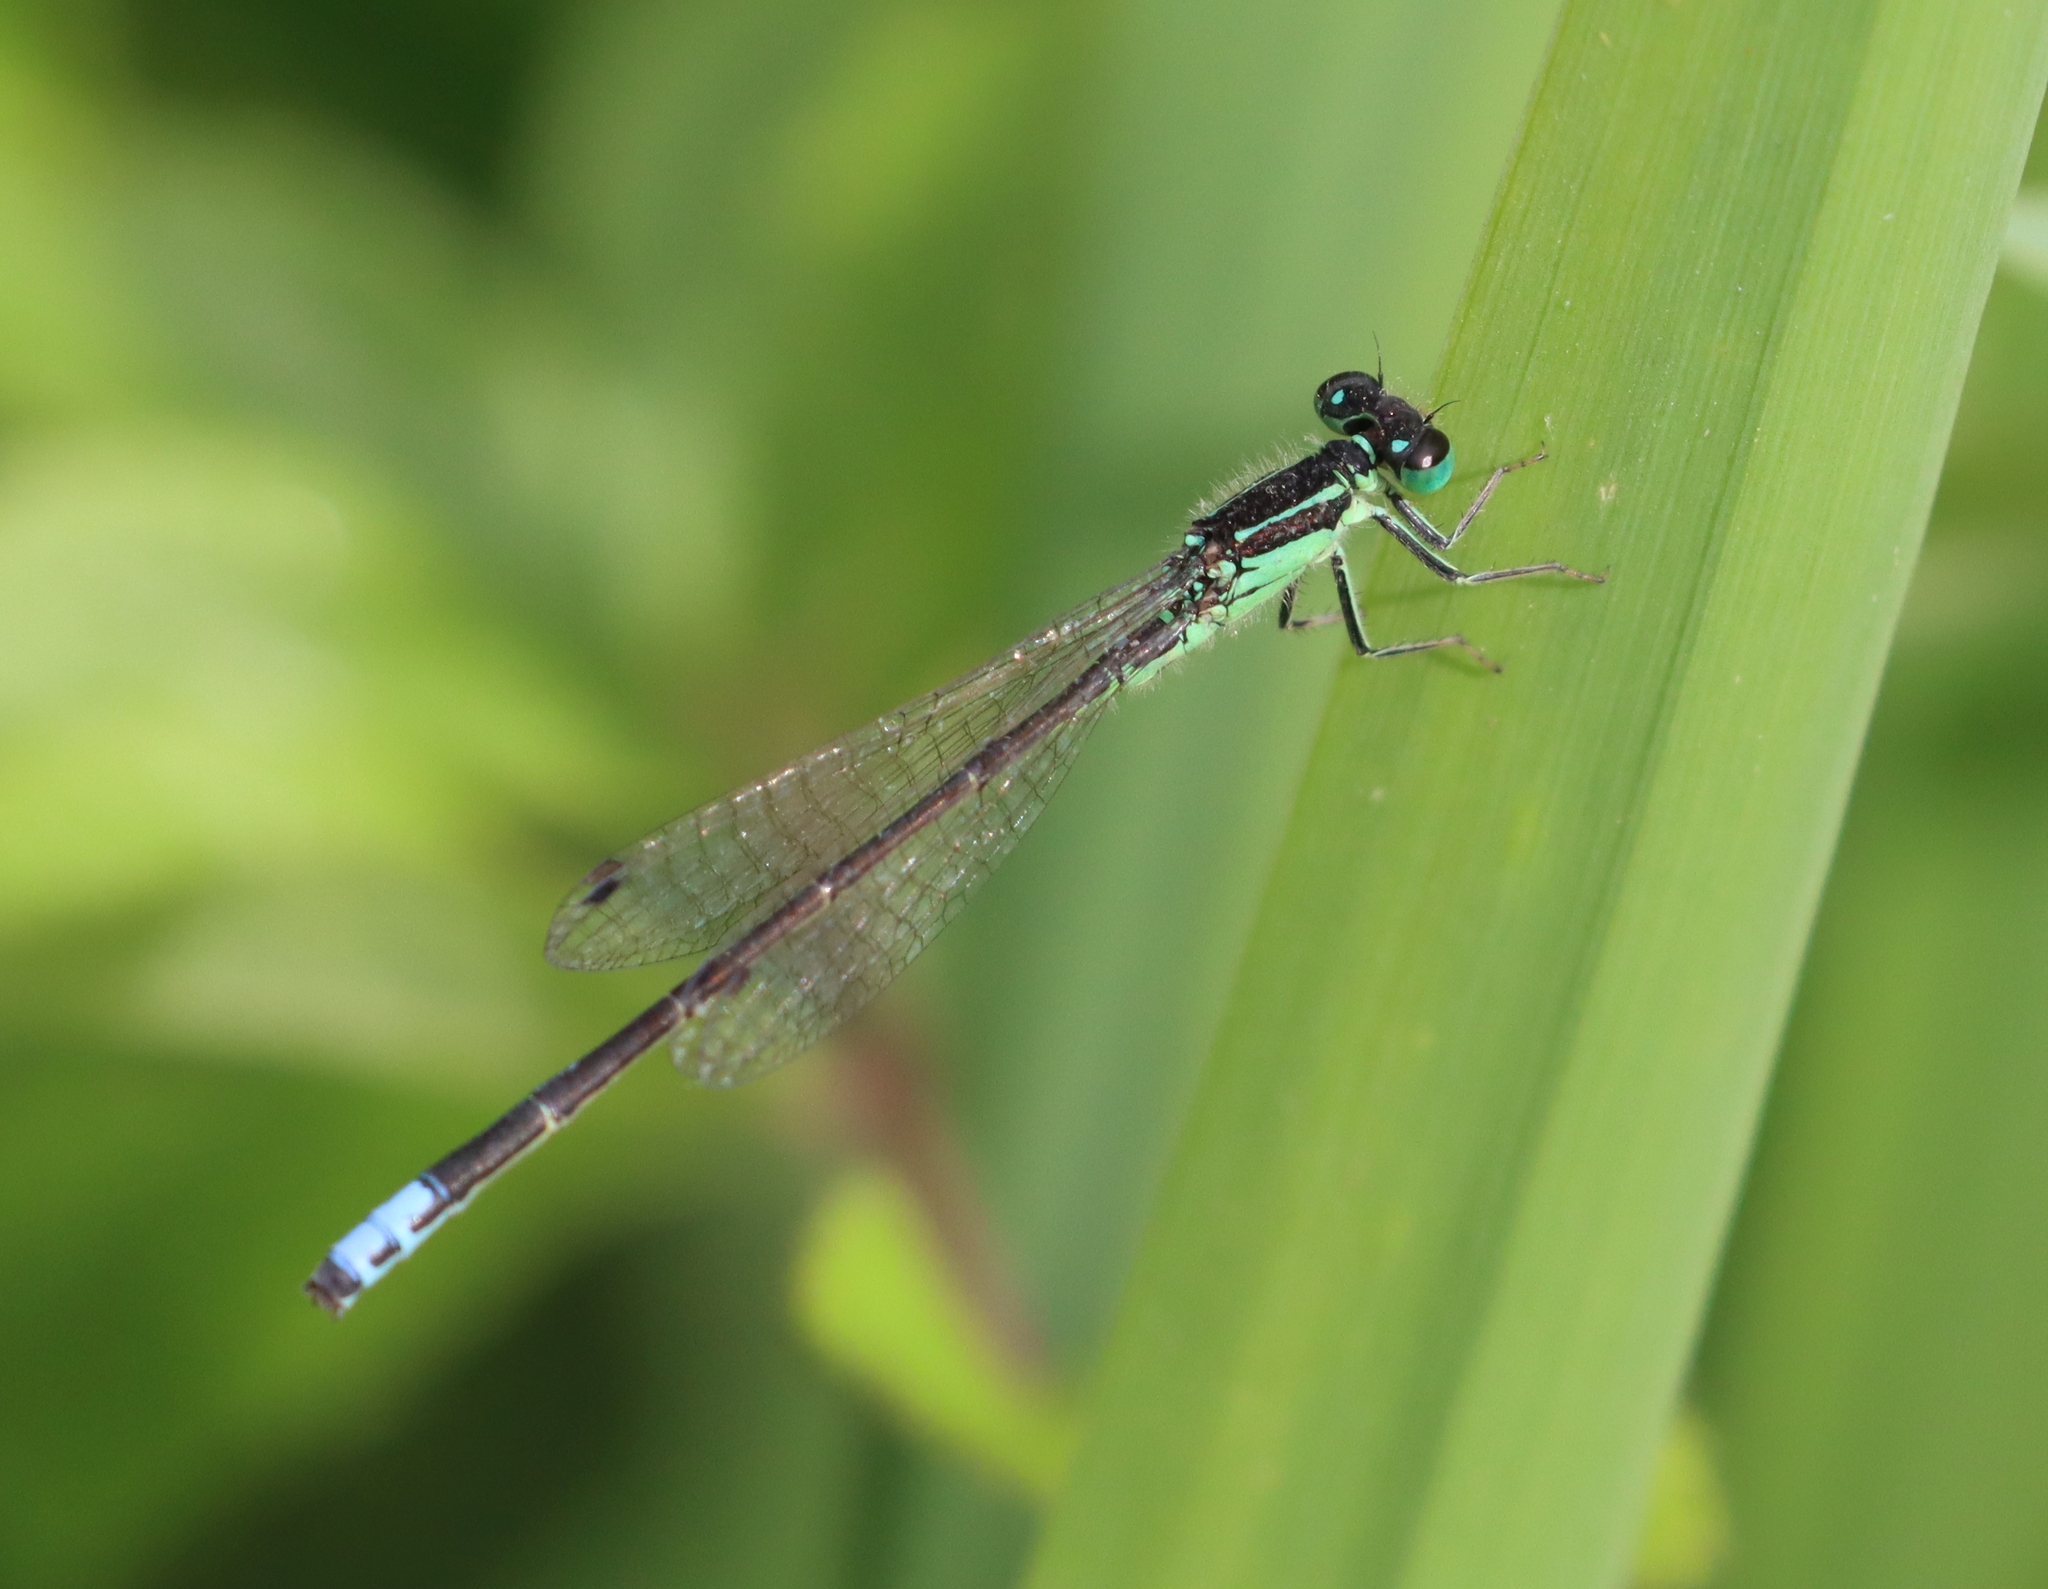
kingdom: Animalia
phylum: Arthropoda
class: Insecta
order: Odonata
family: Coenagrionidae
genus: Ischnura
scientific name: Ischnura verticalis
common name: Eastern forktail
